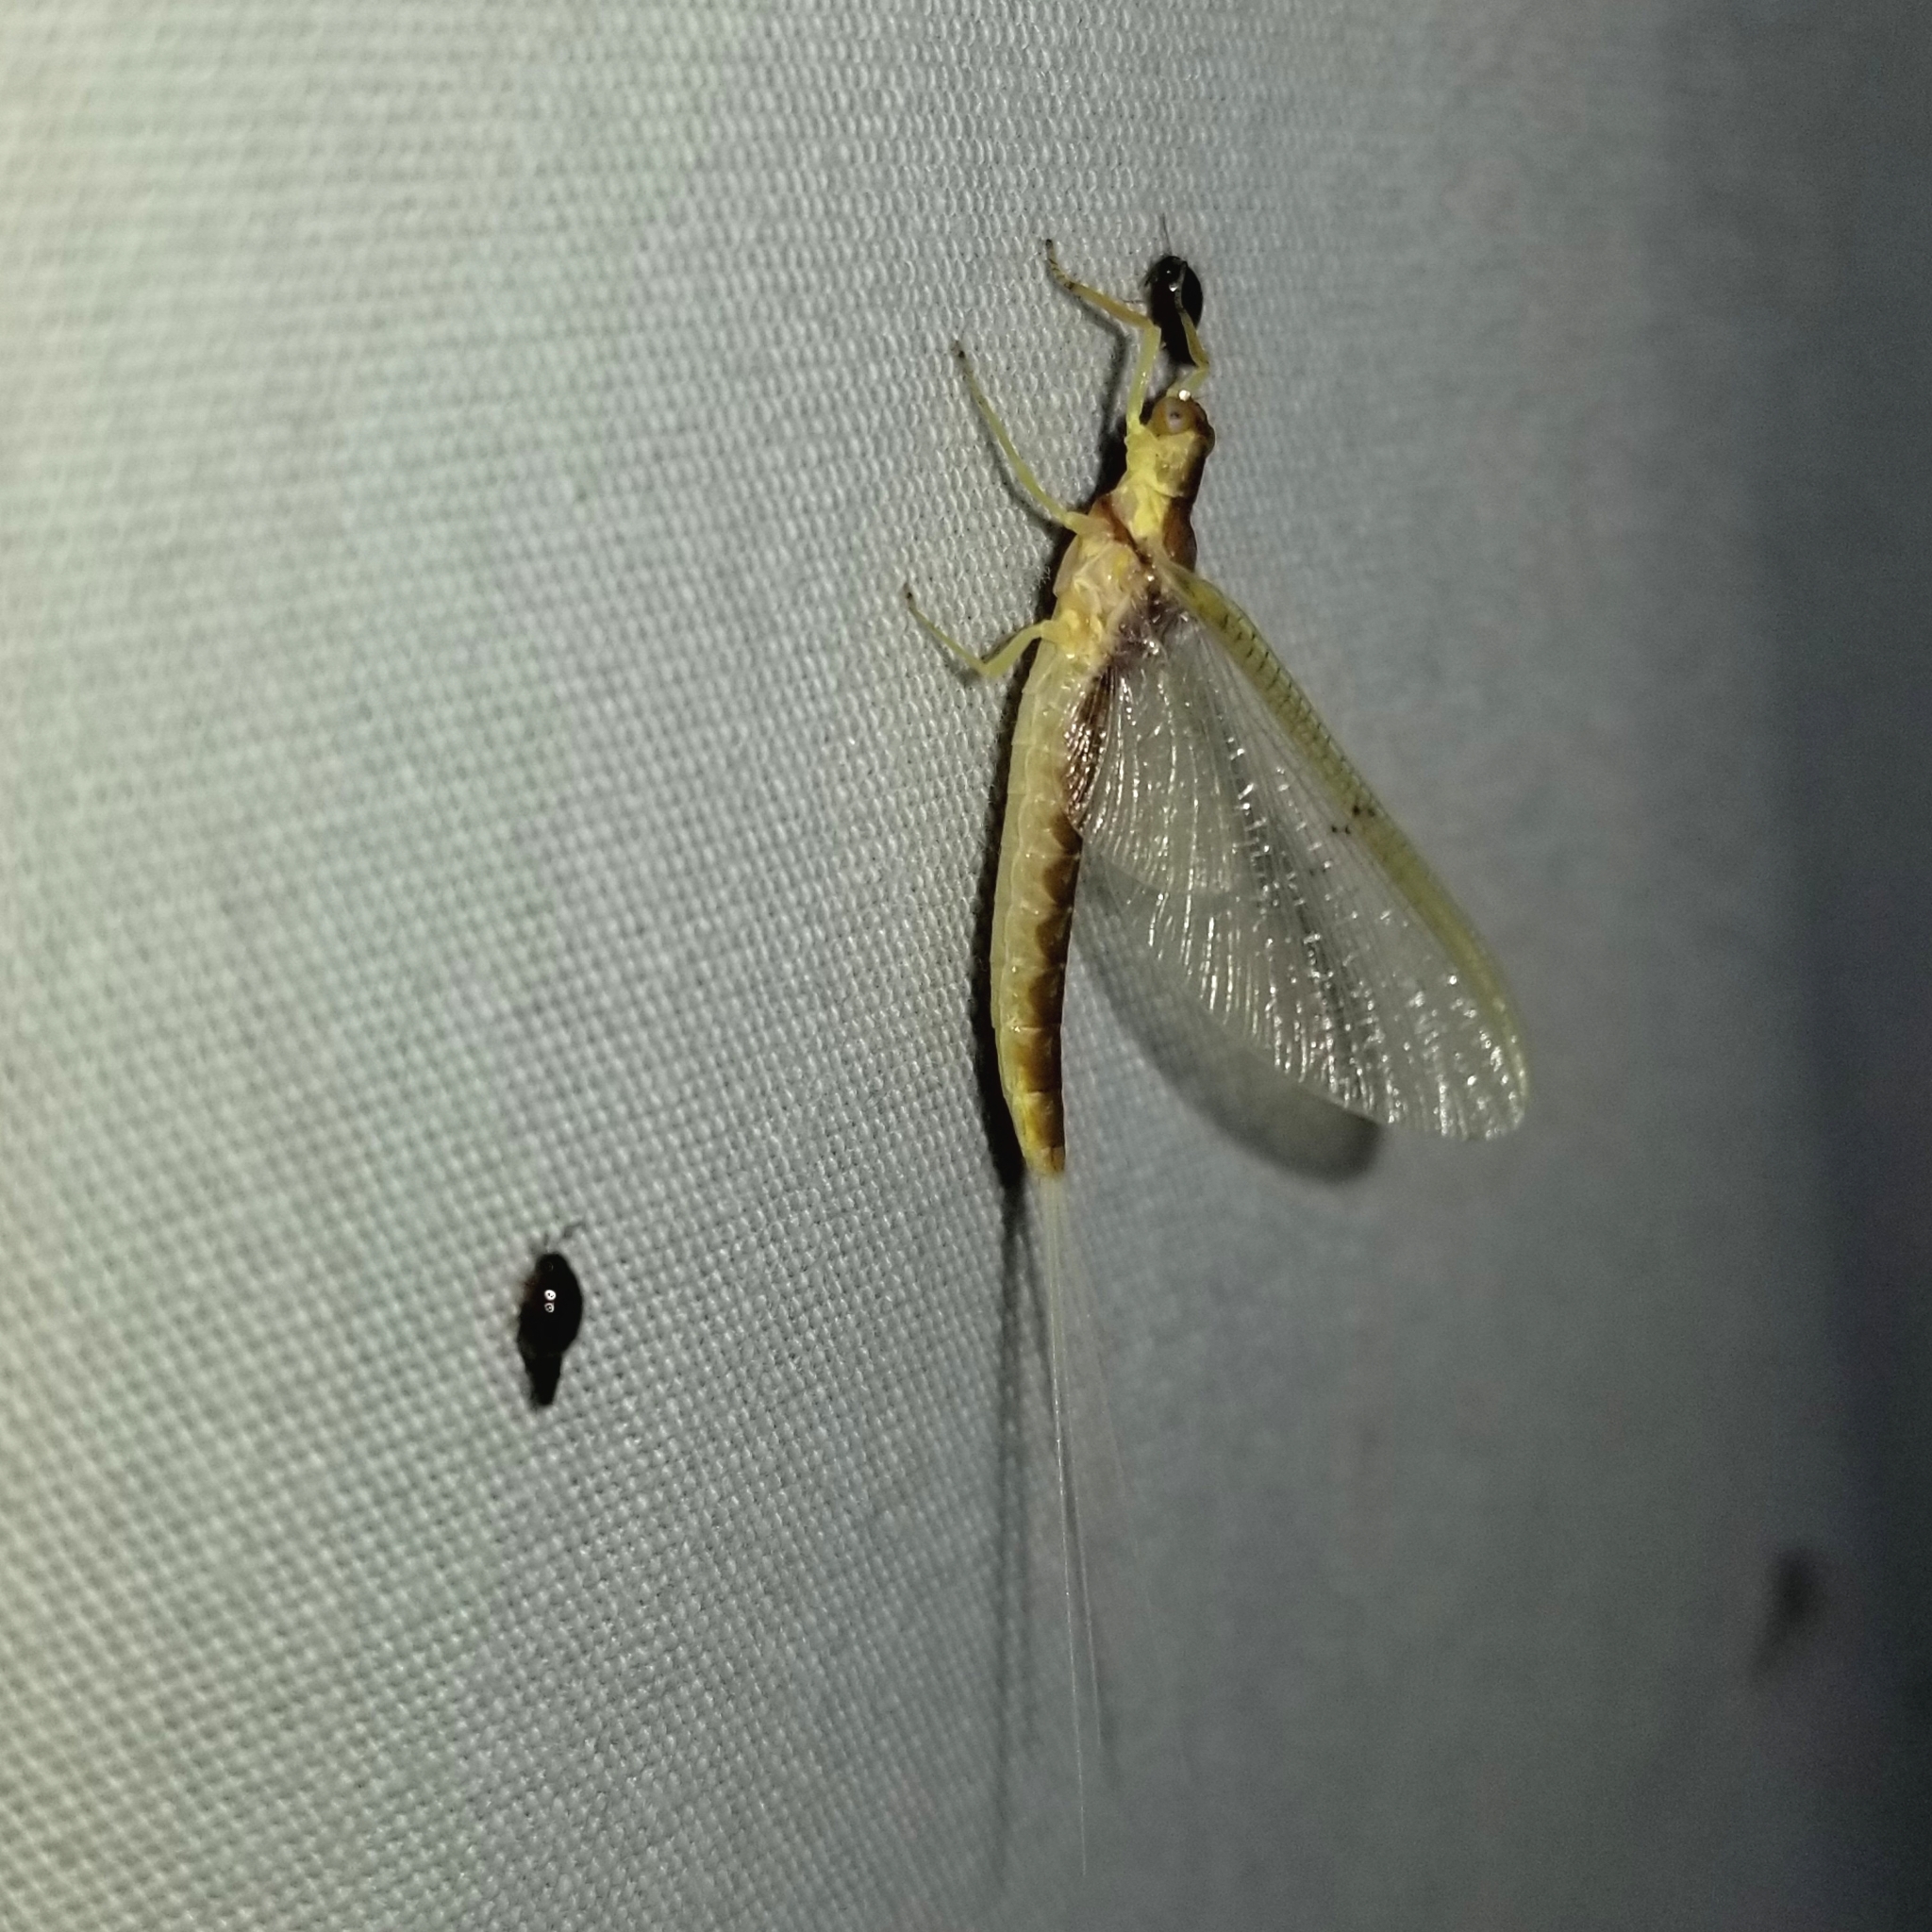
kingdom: Animalia
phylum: Arthropoda
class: Insecta
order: Ephemeroptera
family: Ephemeridae
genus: Pentagenia
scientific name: Pentagenia vittigera
